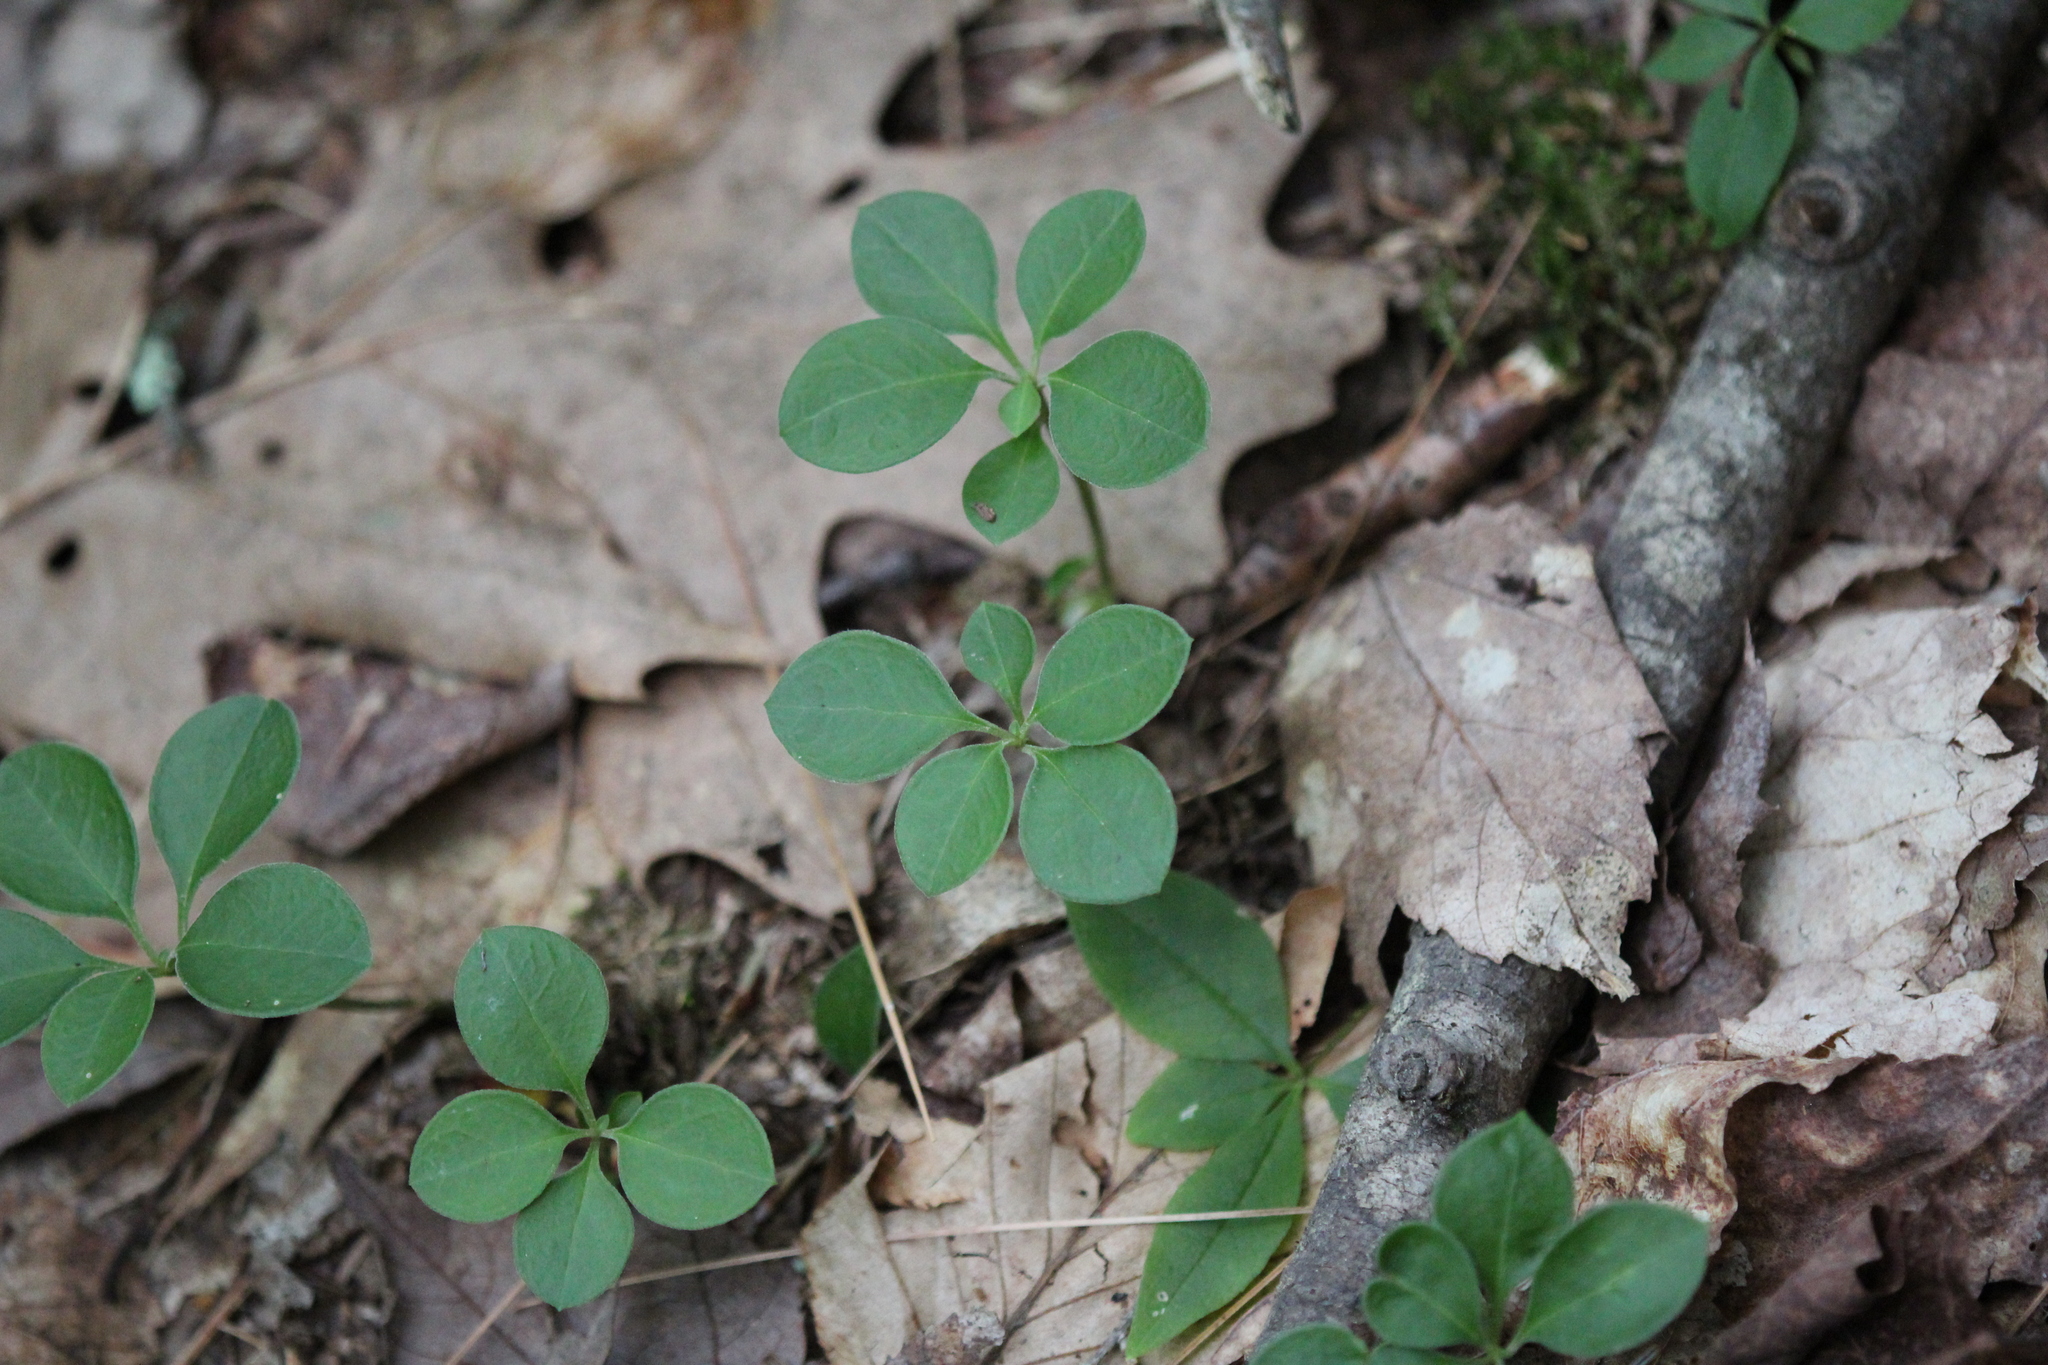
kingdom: Plantae
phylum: Tracheophyta
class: Magnoliopsida
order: Fabales
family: Polygalaceae
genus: Polygaloides
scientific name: Polygaloides paucifolia
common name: Bird-on-the-wing
